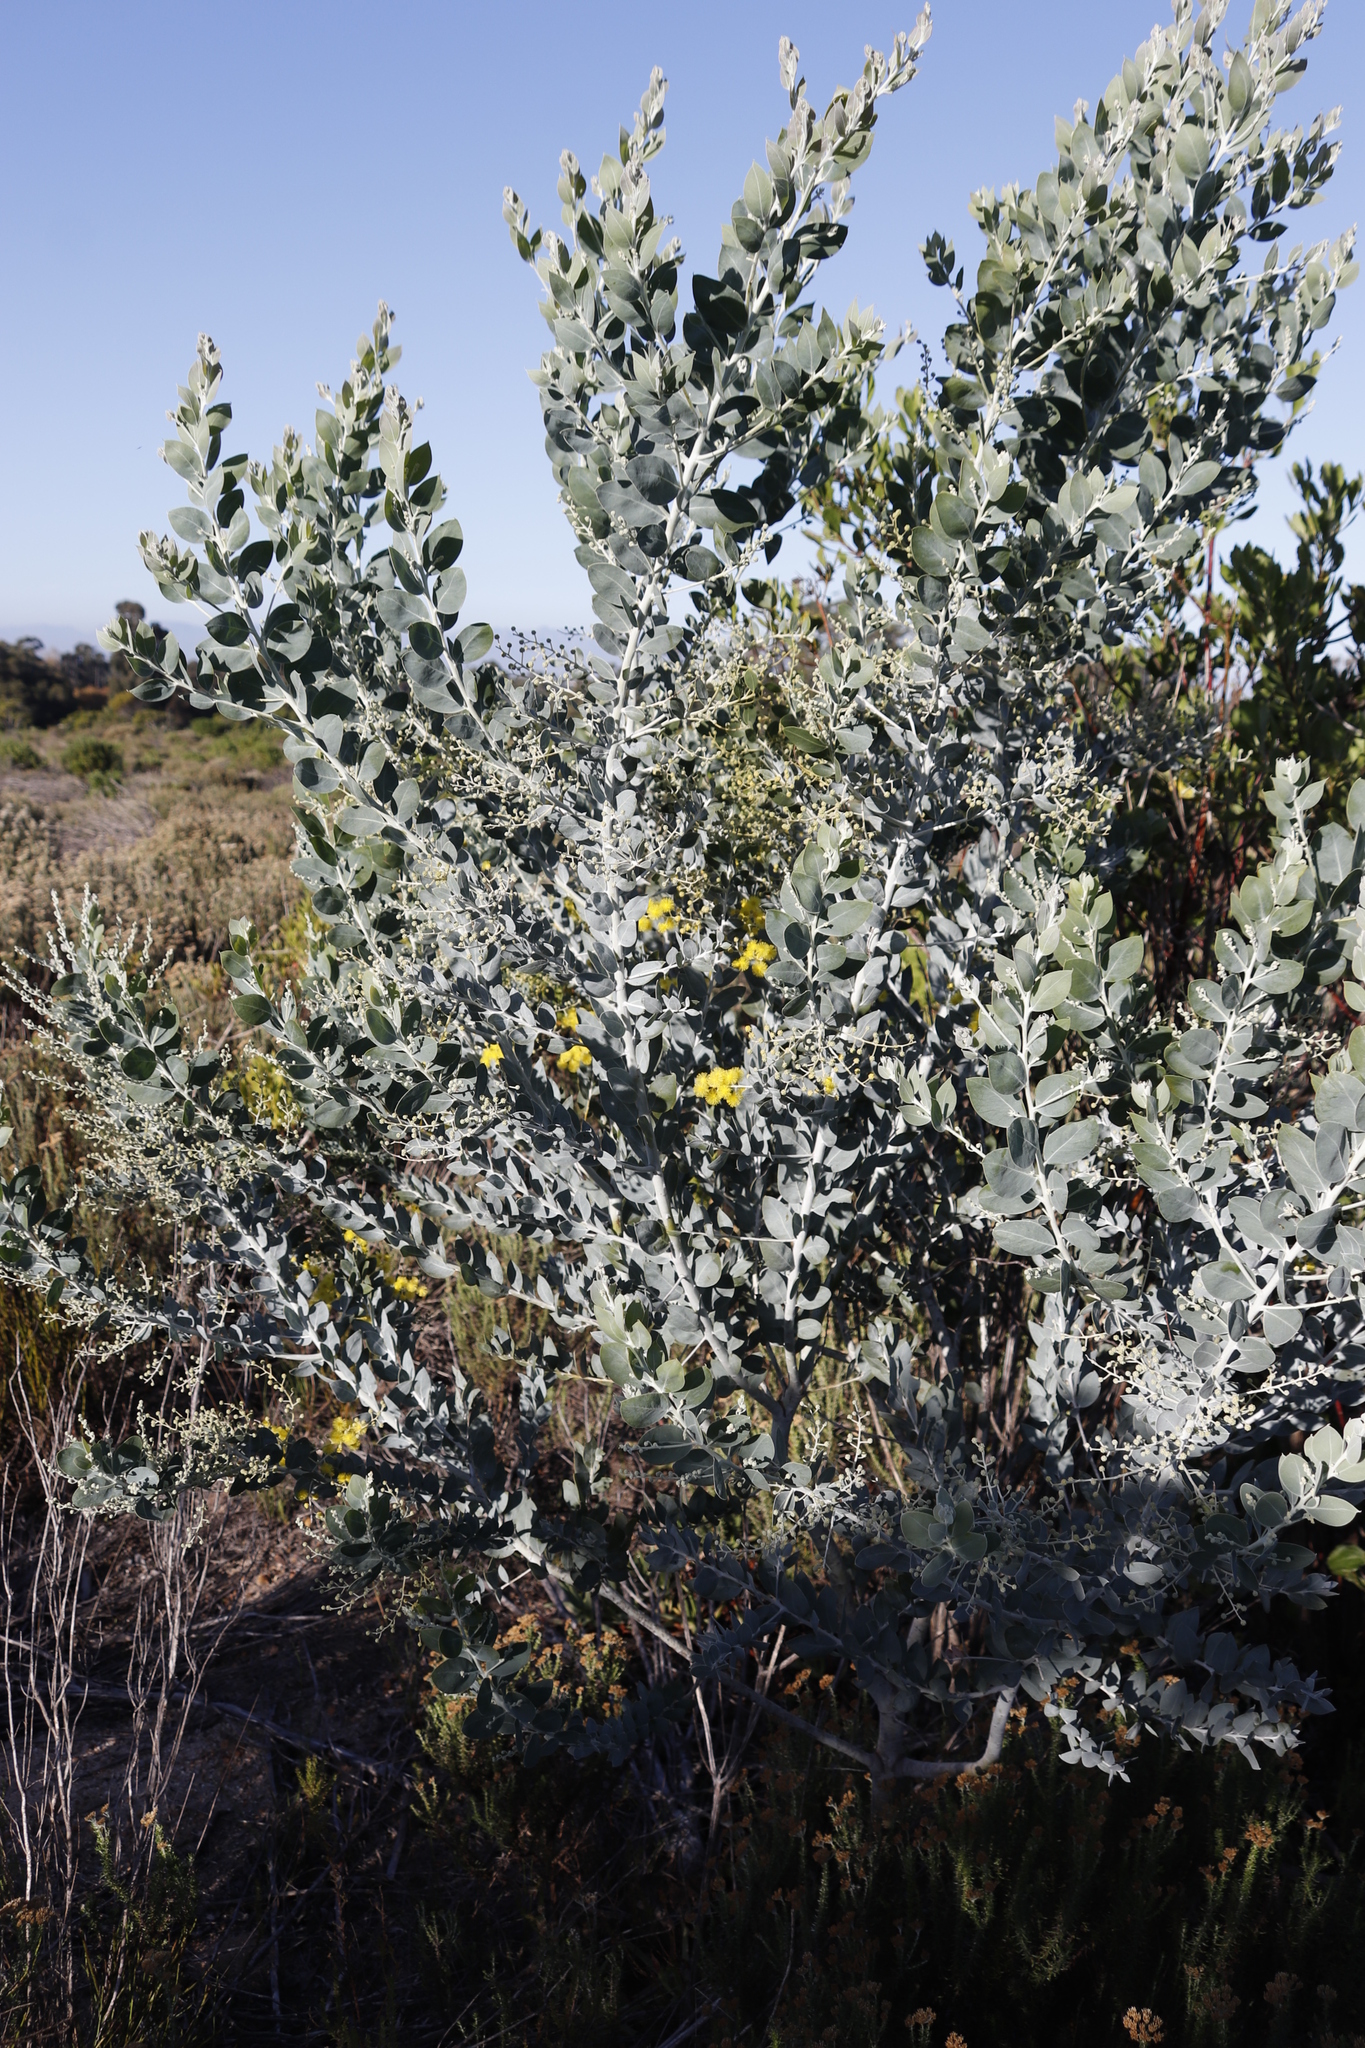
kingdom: Plantae
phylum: Tracheophyta
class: Magnoliopsida
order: Fabales
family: Fabaceae
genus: Acacia
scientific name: Acacia podalyriifolia
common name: Pearl wattle
